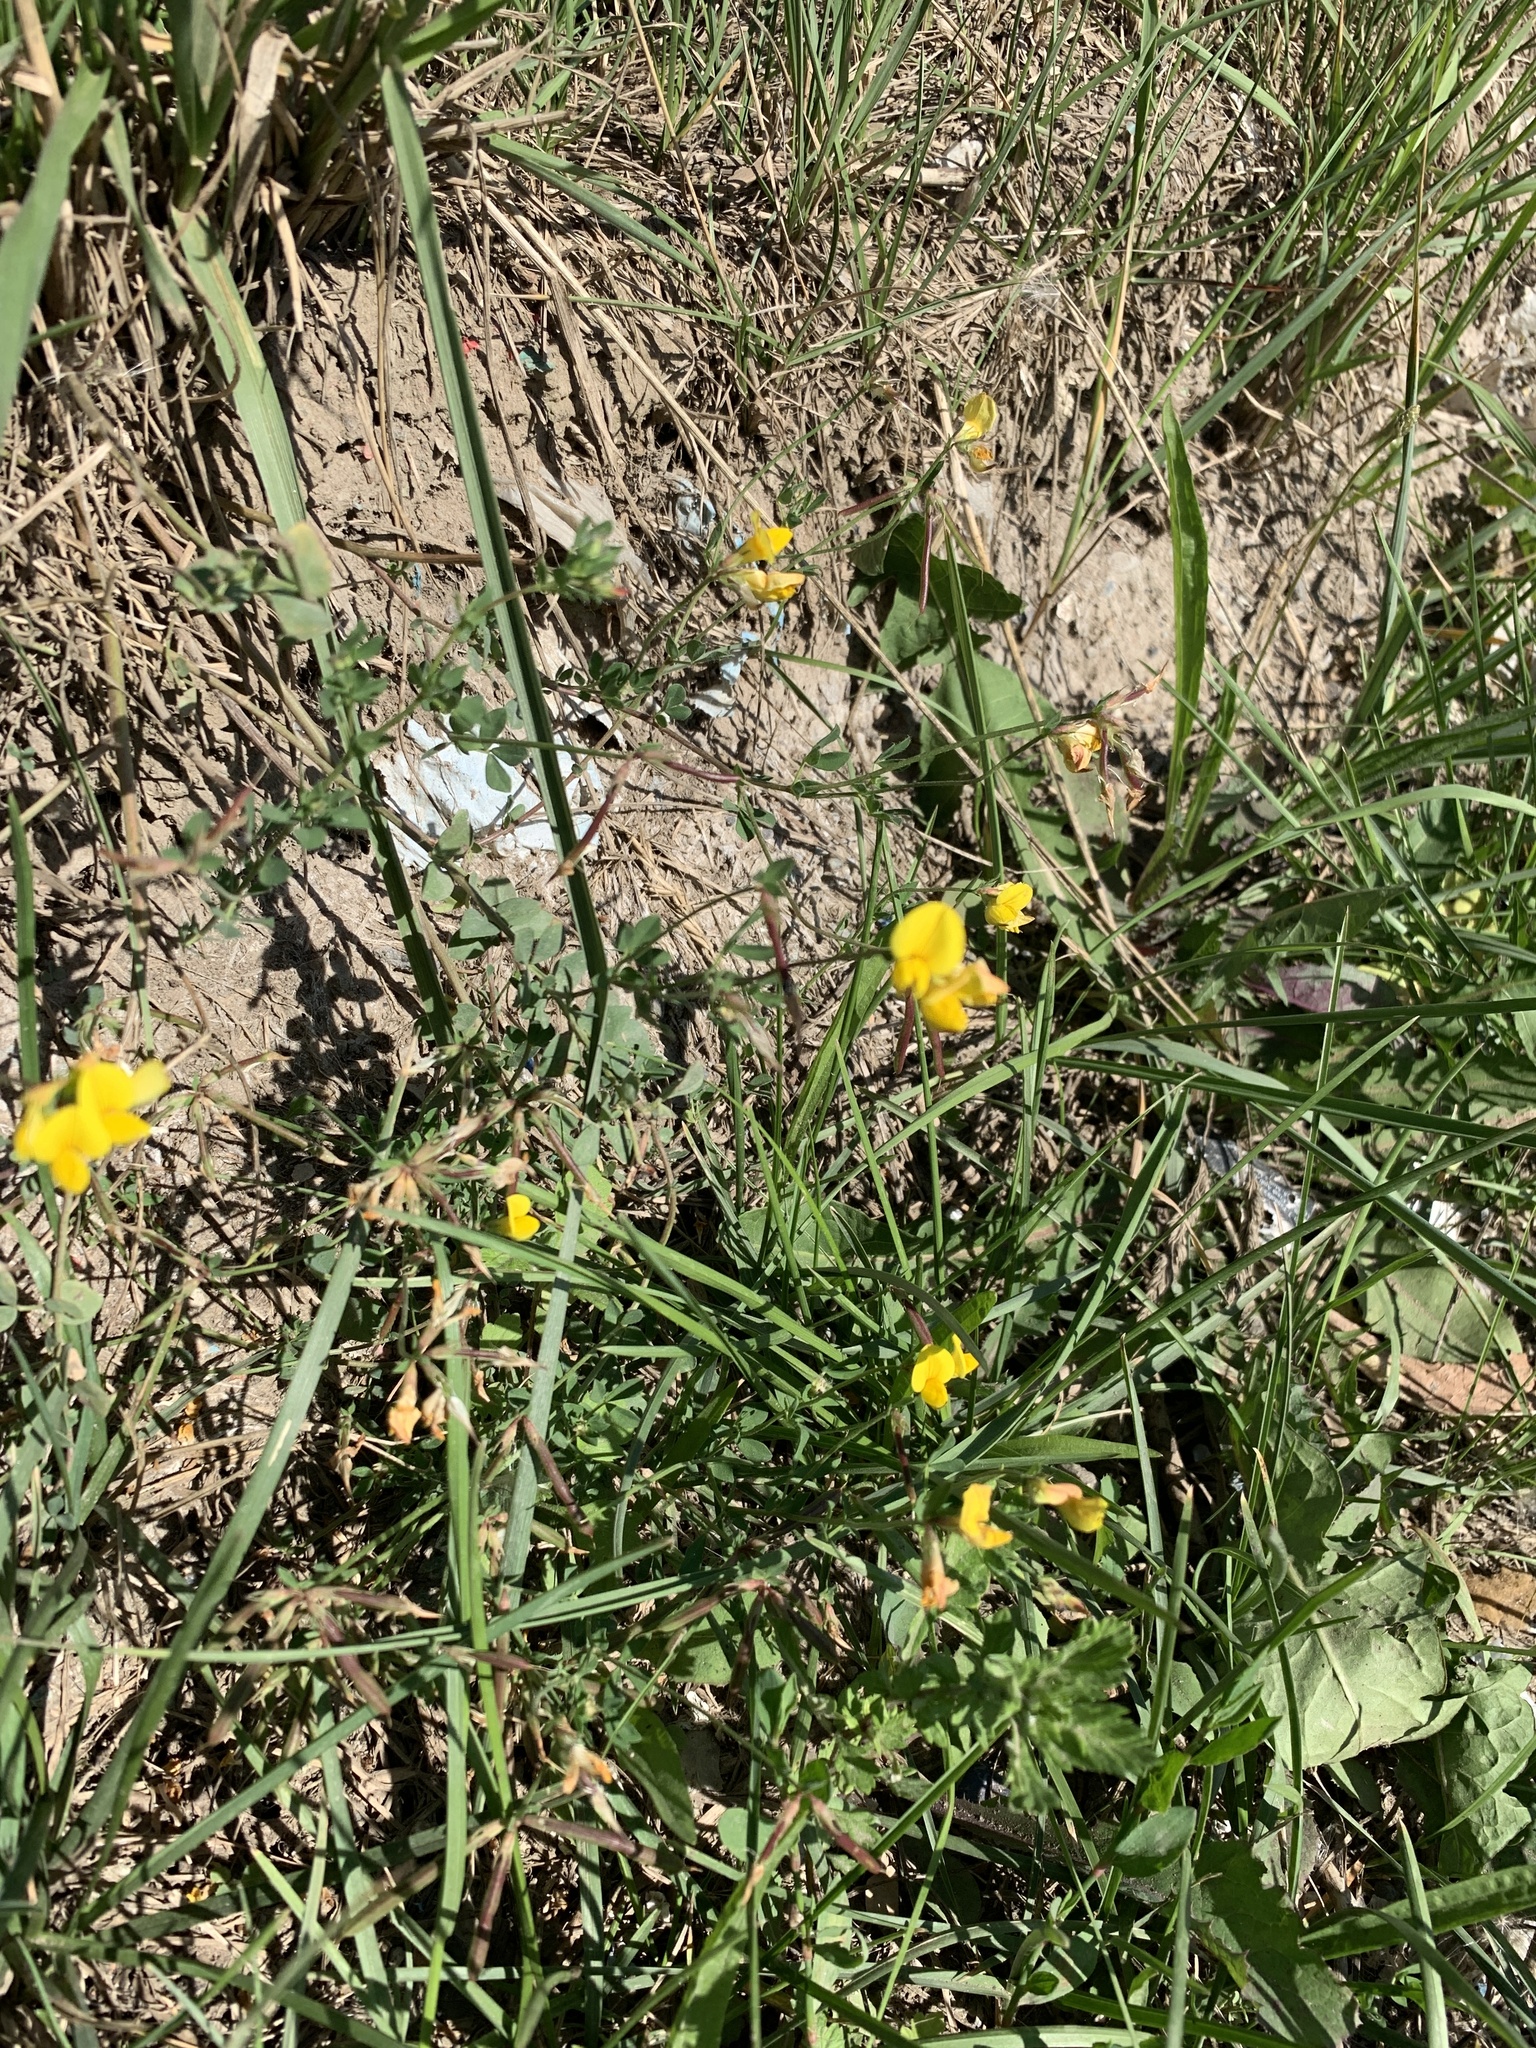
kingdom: Plantae
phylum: Tracheophyta
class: Magnoliopsida
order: Fabales
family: Fabaceae
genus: Lotus
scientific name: Lotus corniculatus
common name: Common bird's-foot-trefoil
